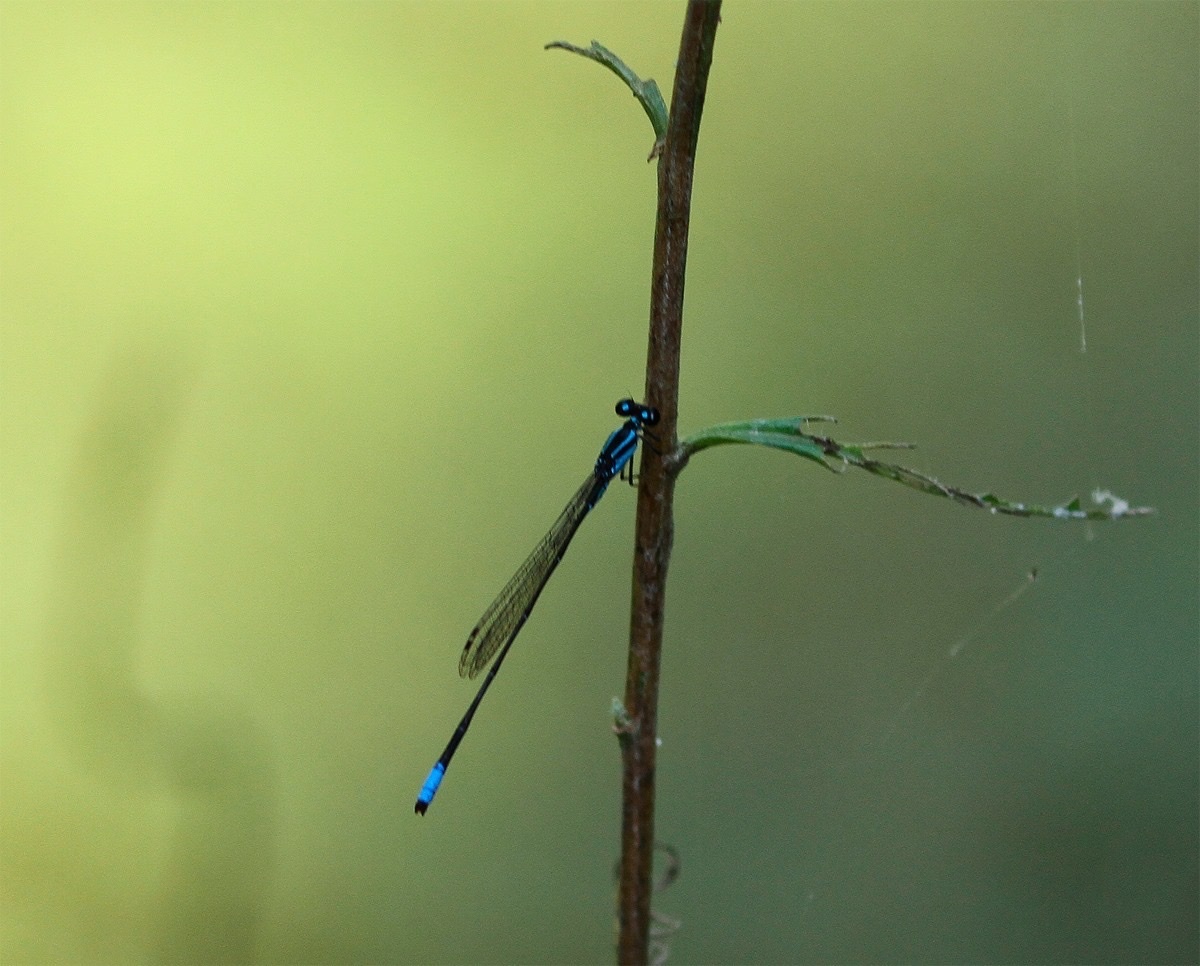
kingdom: Animalia
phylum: Arthropoda
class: Insecta
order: Odonata
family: Coenagrionidae
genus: Acanthagrion
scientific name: Acanthagrion gracile
